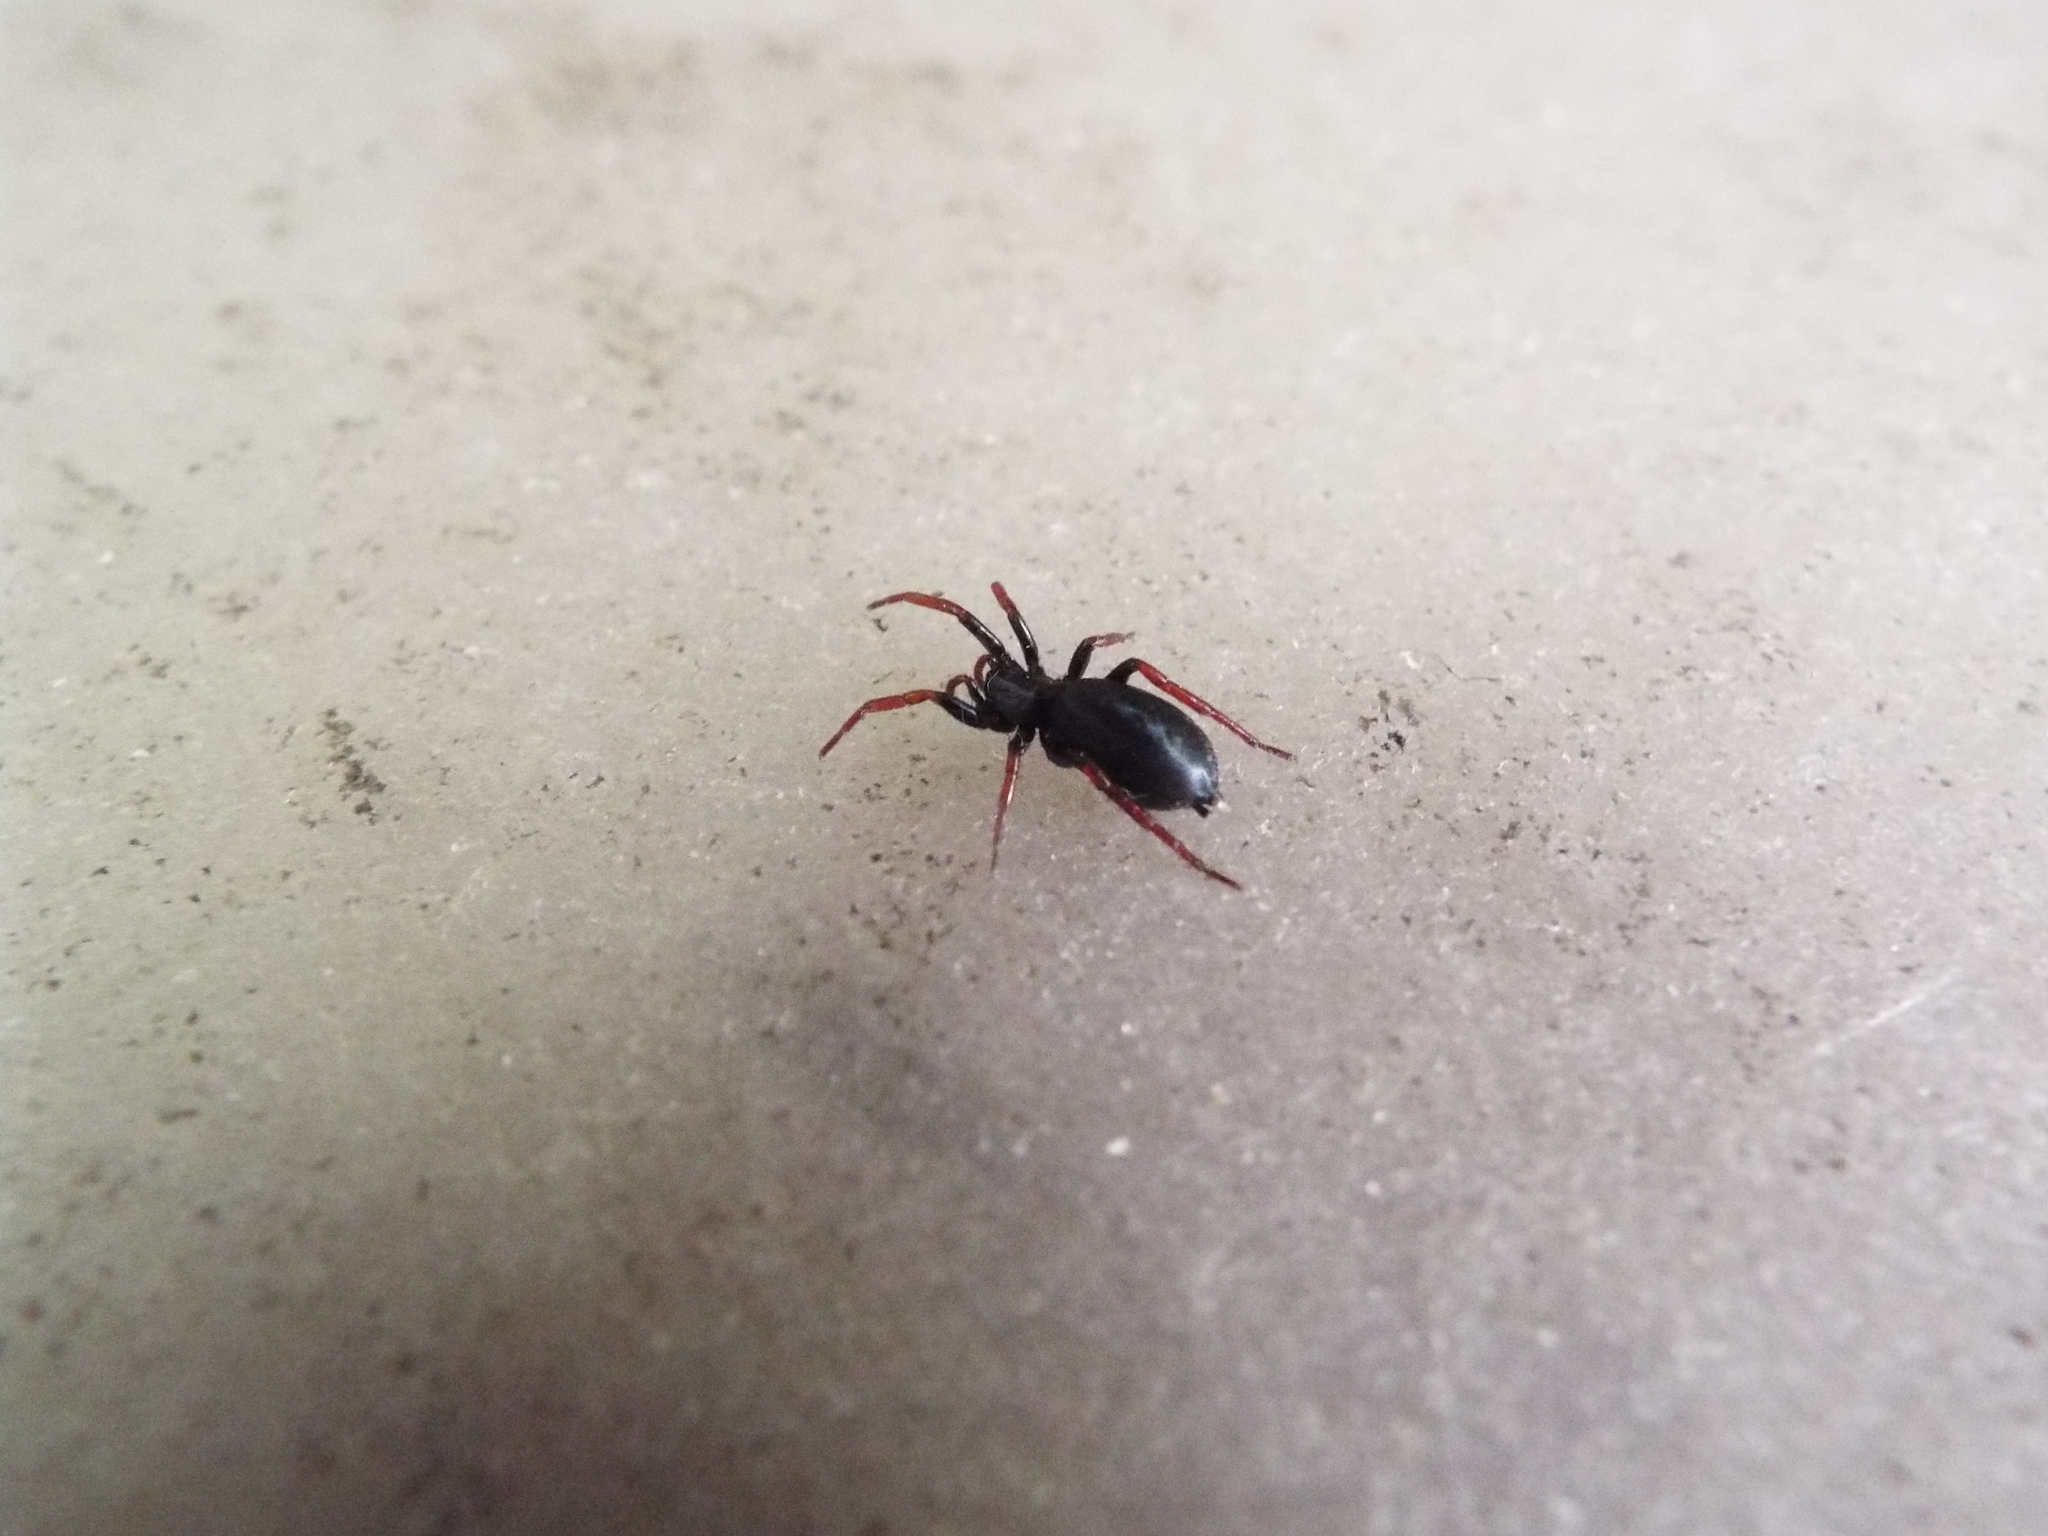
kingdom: Animalia
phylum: Arthropoda
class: Arachnida
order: Araneae
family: Gnaphosidae
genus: Trachyzelotes
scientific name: Trachyzelotes pedestris
